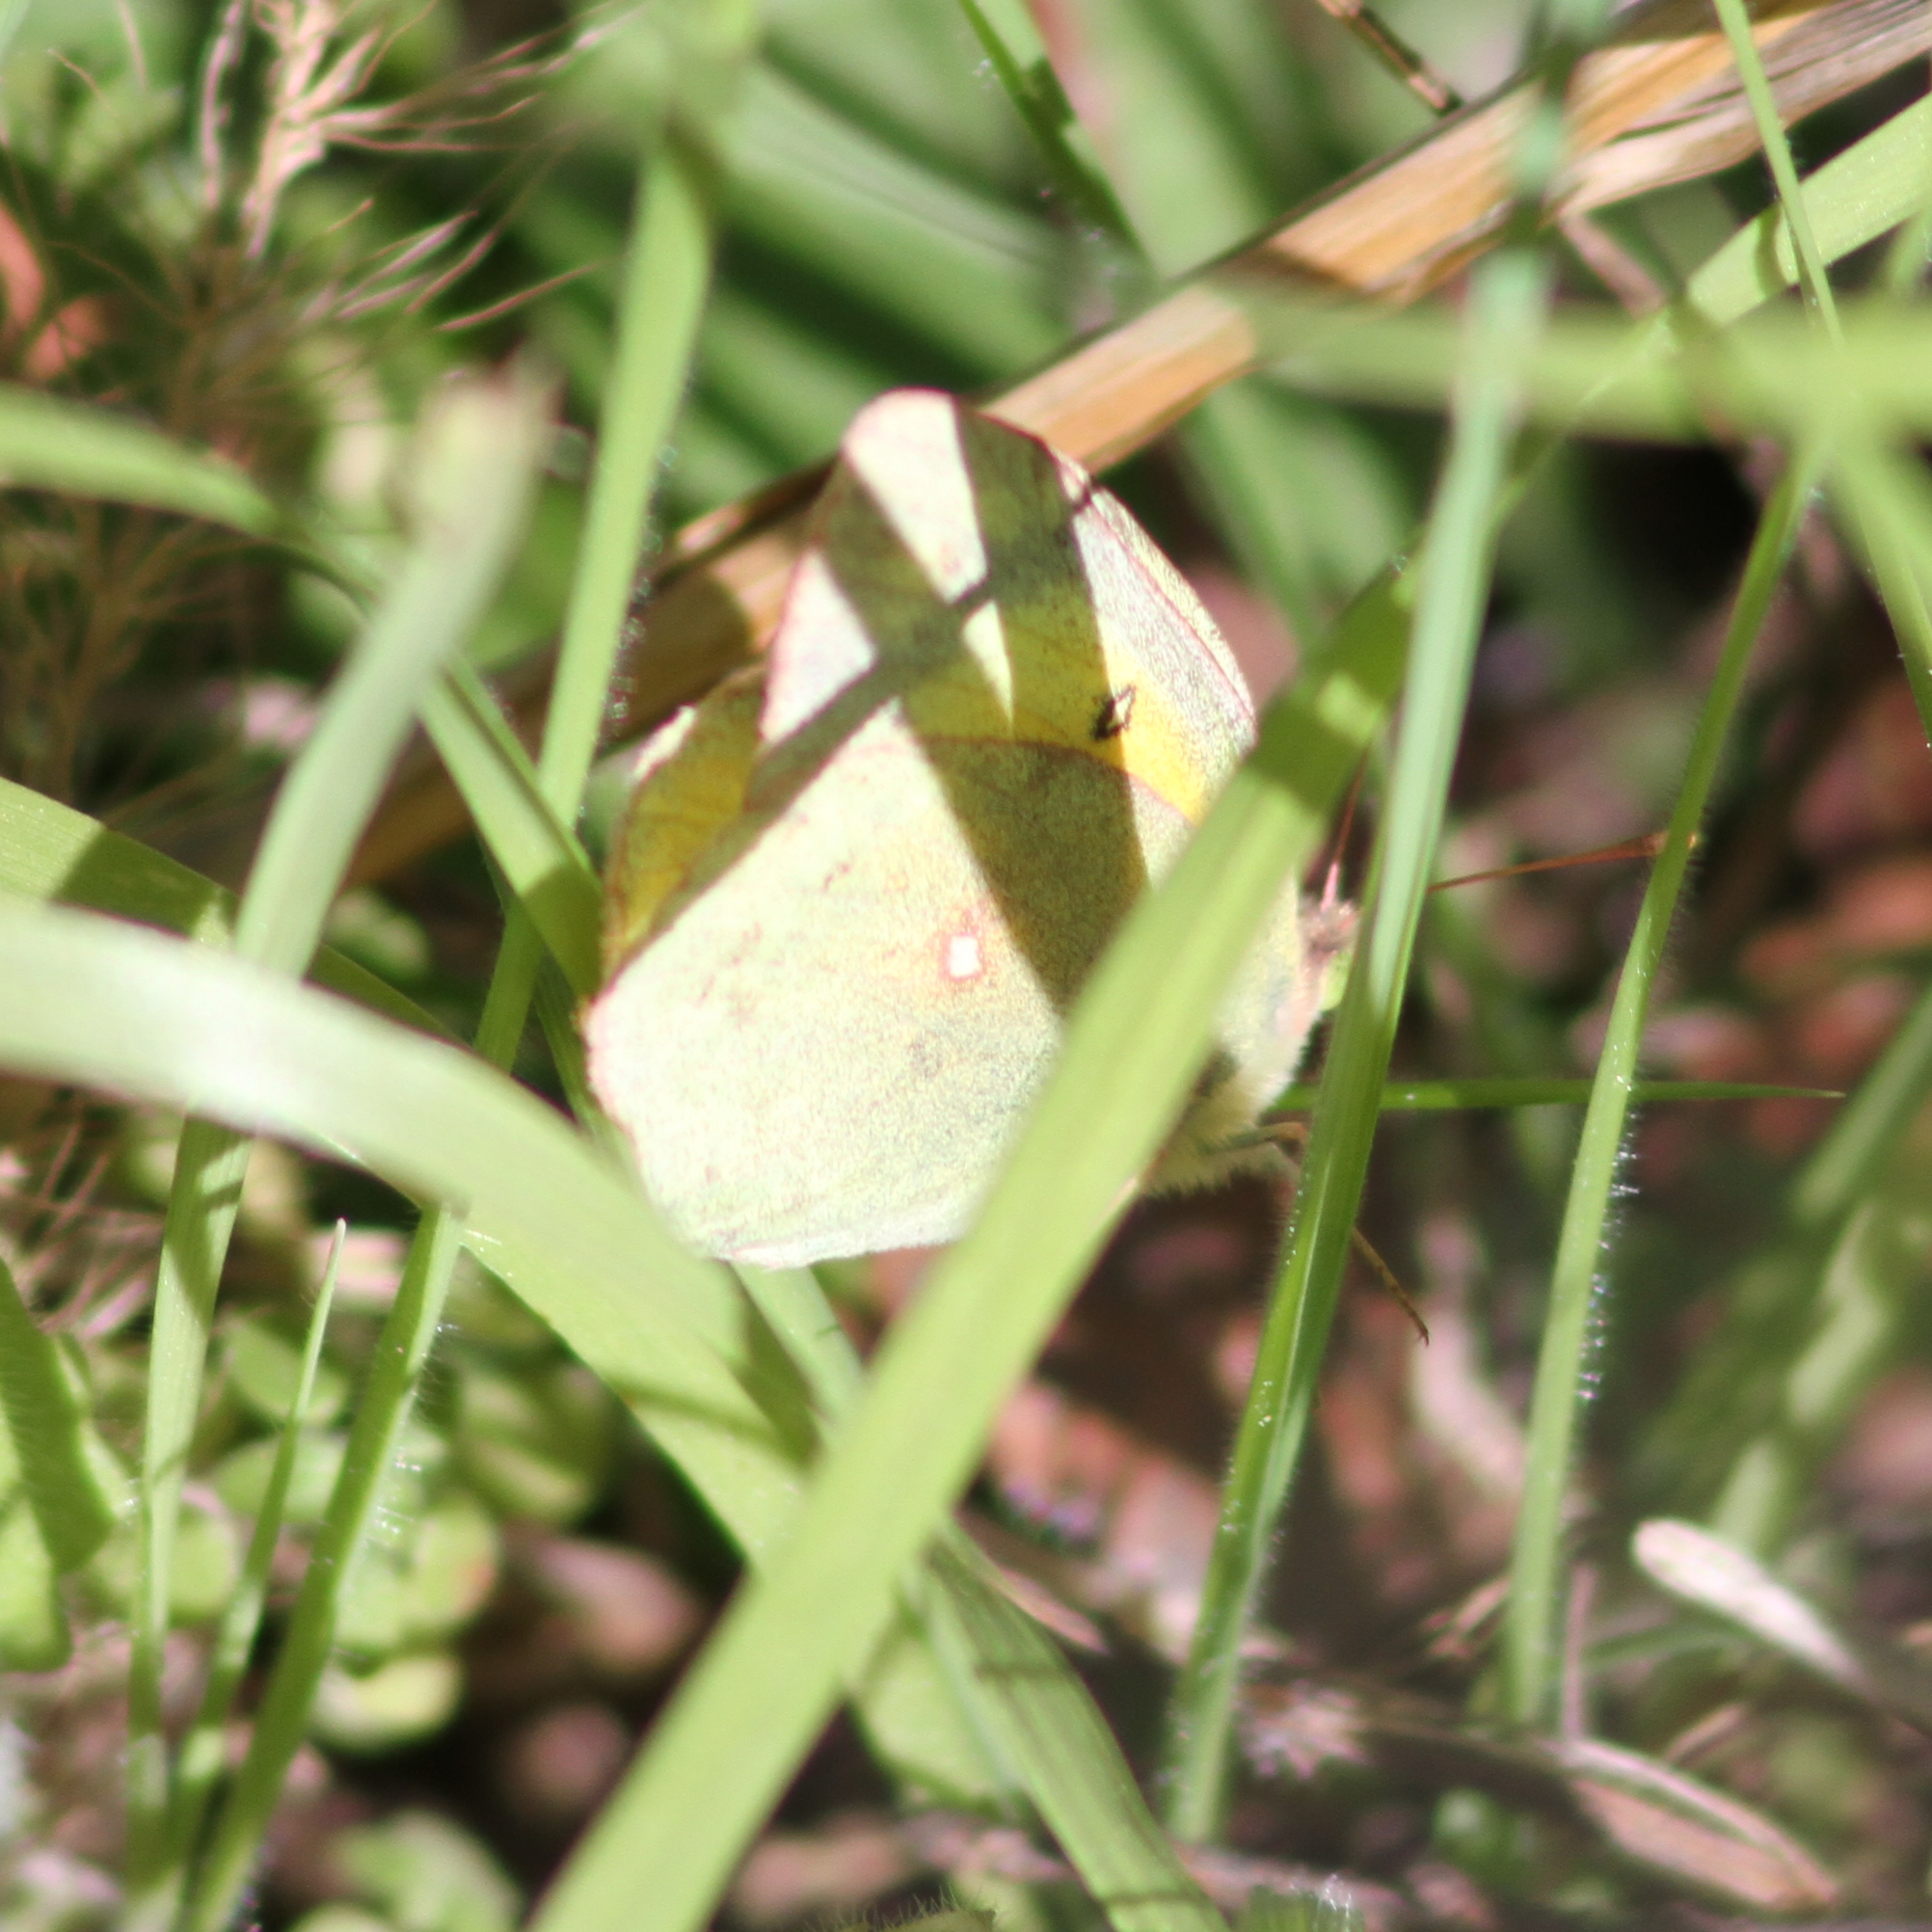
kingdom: Animalia
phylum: Arthropoda
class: Insecta
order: Lepidoptera
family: Pieridae
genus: Colias
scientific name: Colias eurytheme
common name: Alfalfa butterfly
